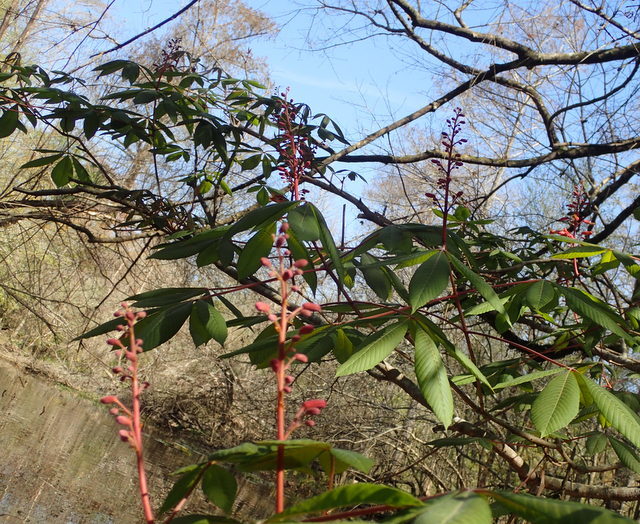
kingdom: Plantae
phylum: Tracheophyta
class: Magnoliopsida
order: Sapindales
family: Sapindaceae
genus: Aesculus
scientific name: Aesculus pavia
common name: Red buckeye
